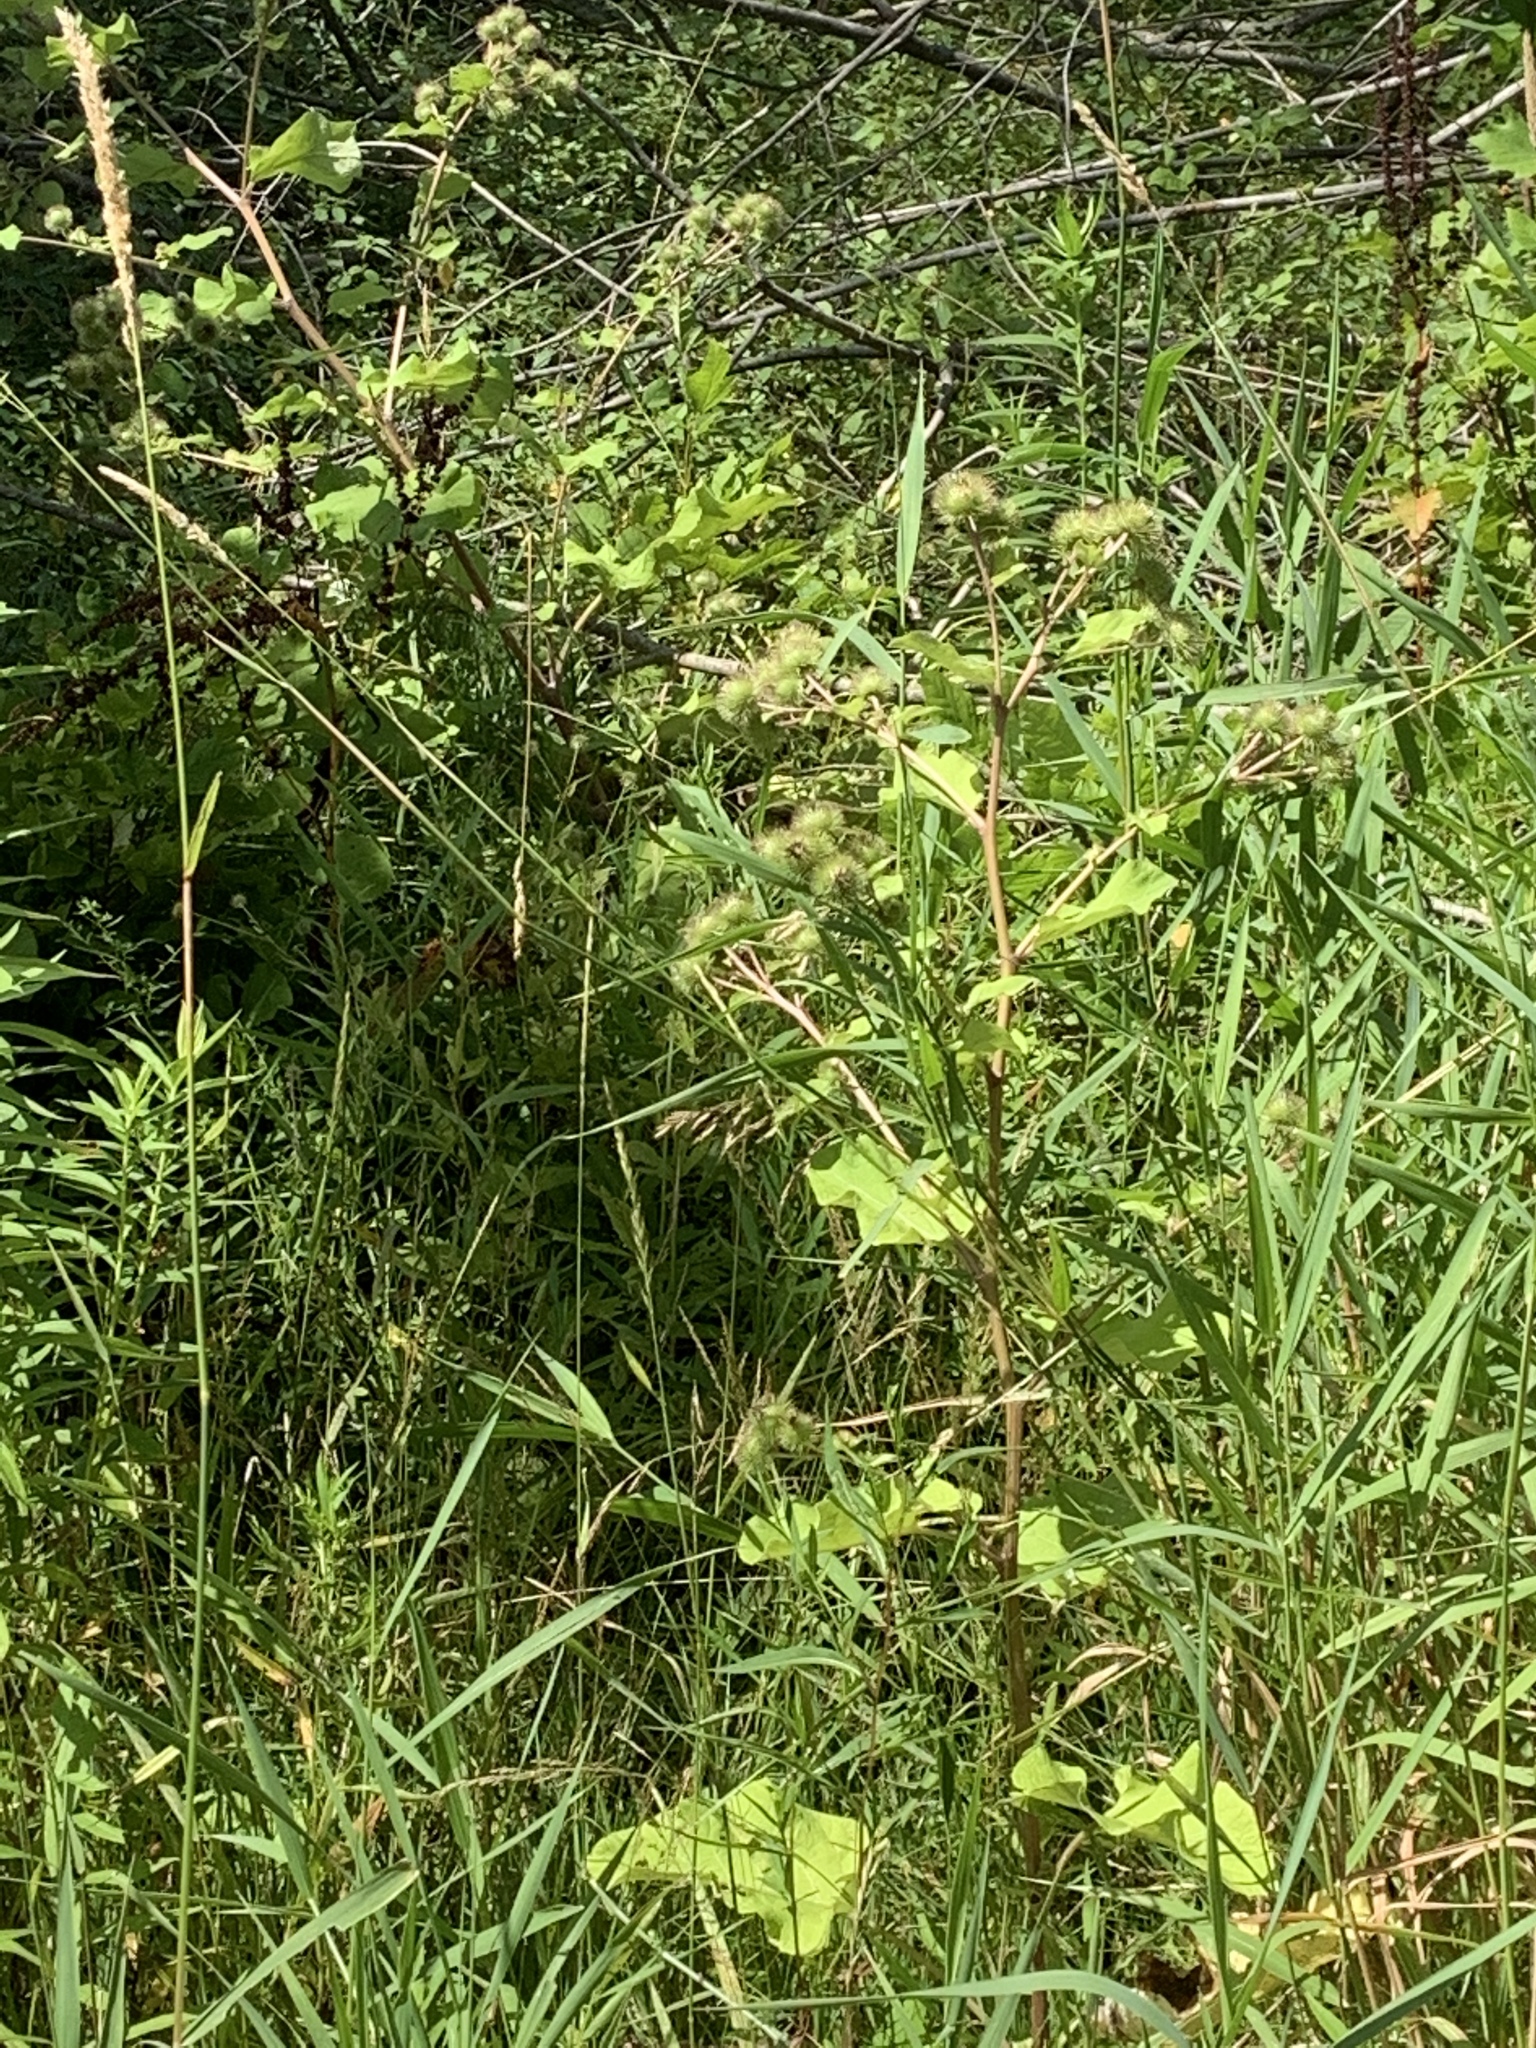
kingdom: Plantae
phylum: Tracheophyta
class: Magnoliopsida
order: Asterales
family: Asteraceae
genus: Arctium
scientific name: Arctium lappa
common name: Greater burdock
